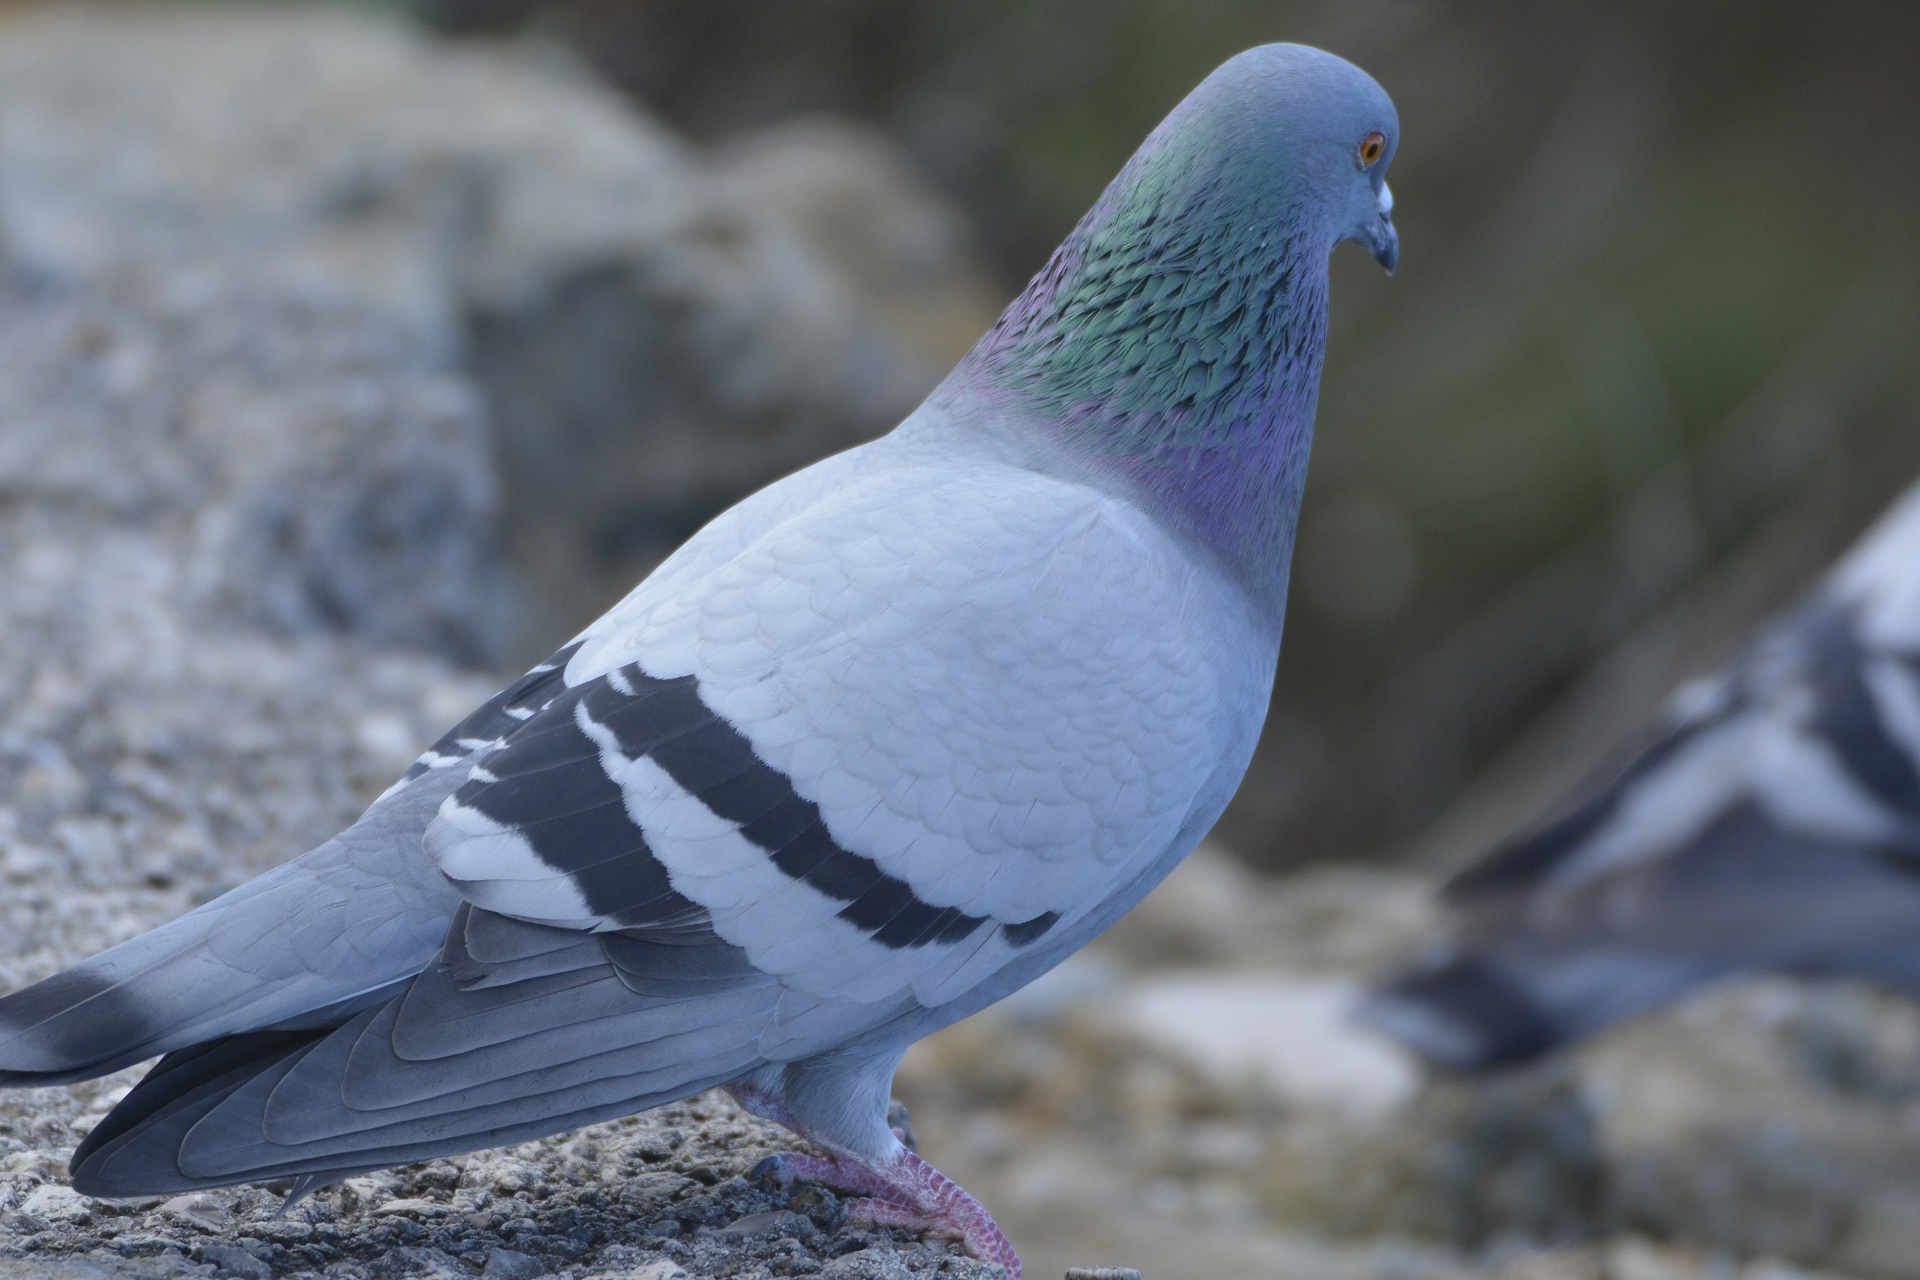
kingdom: Animalia
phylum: Chordata
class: Aves
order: Columbiformes
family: Columbidae
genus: Columba
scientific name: Columba livia
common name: Rock pigeon
